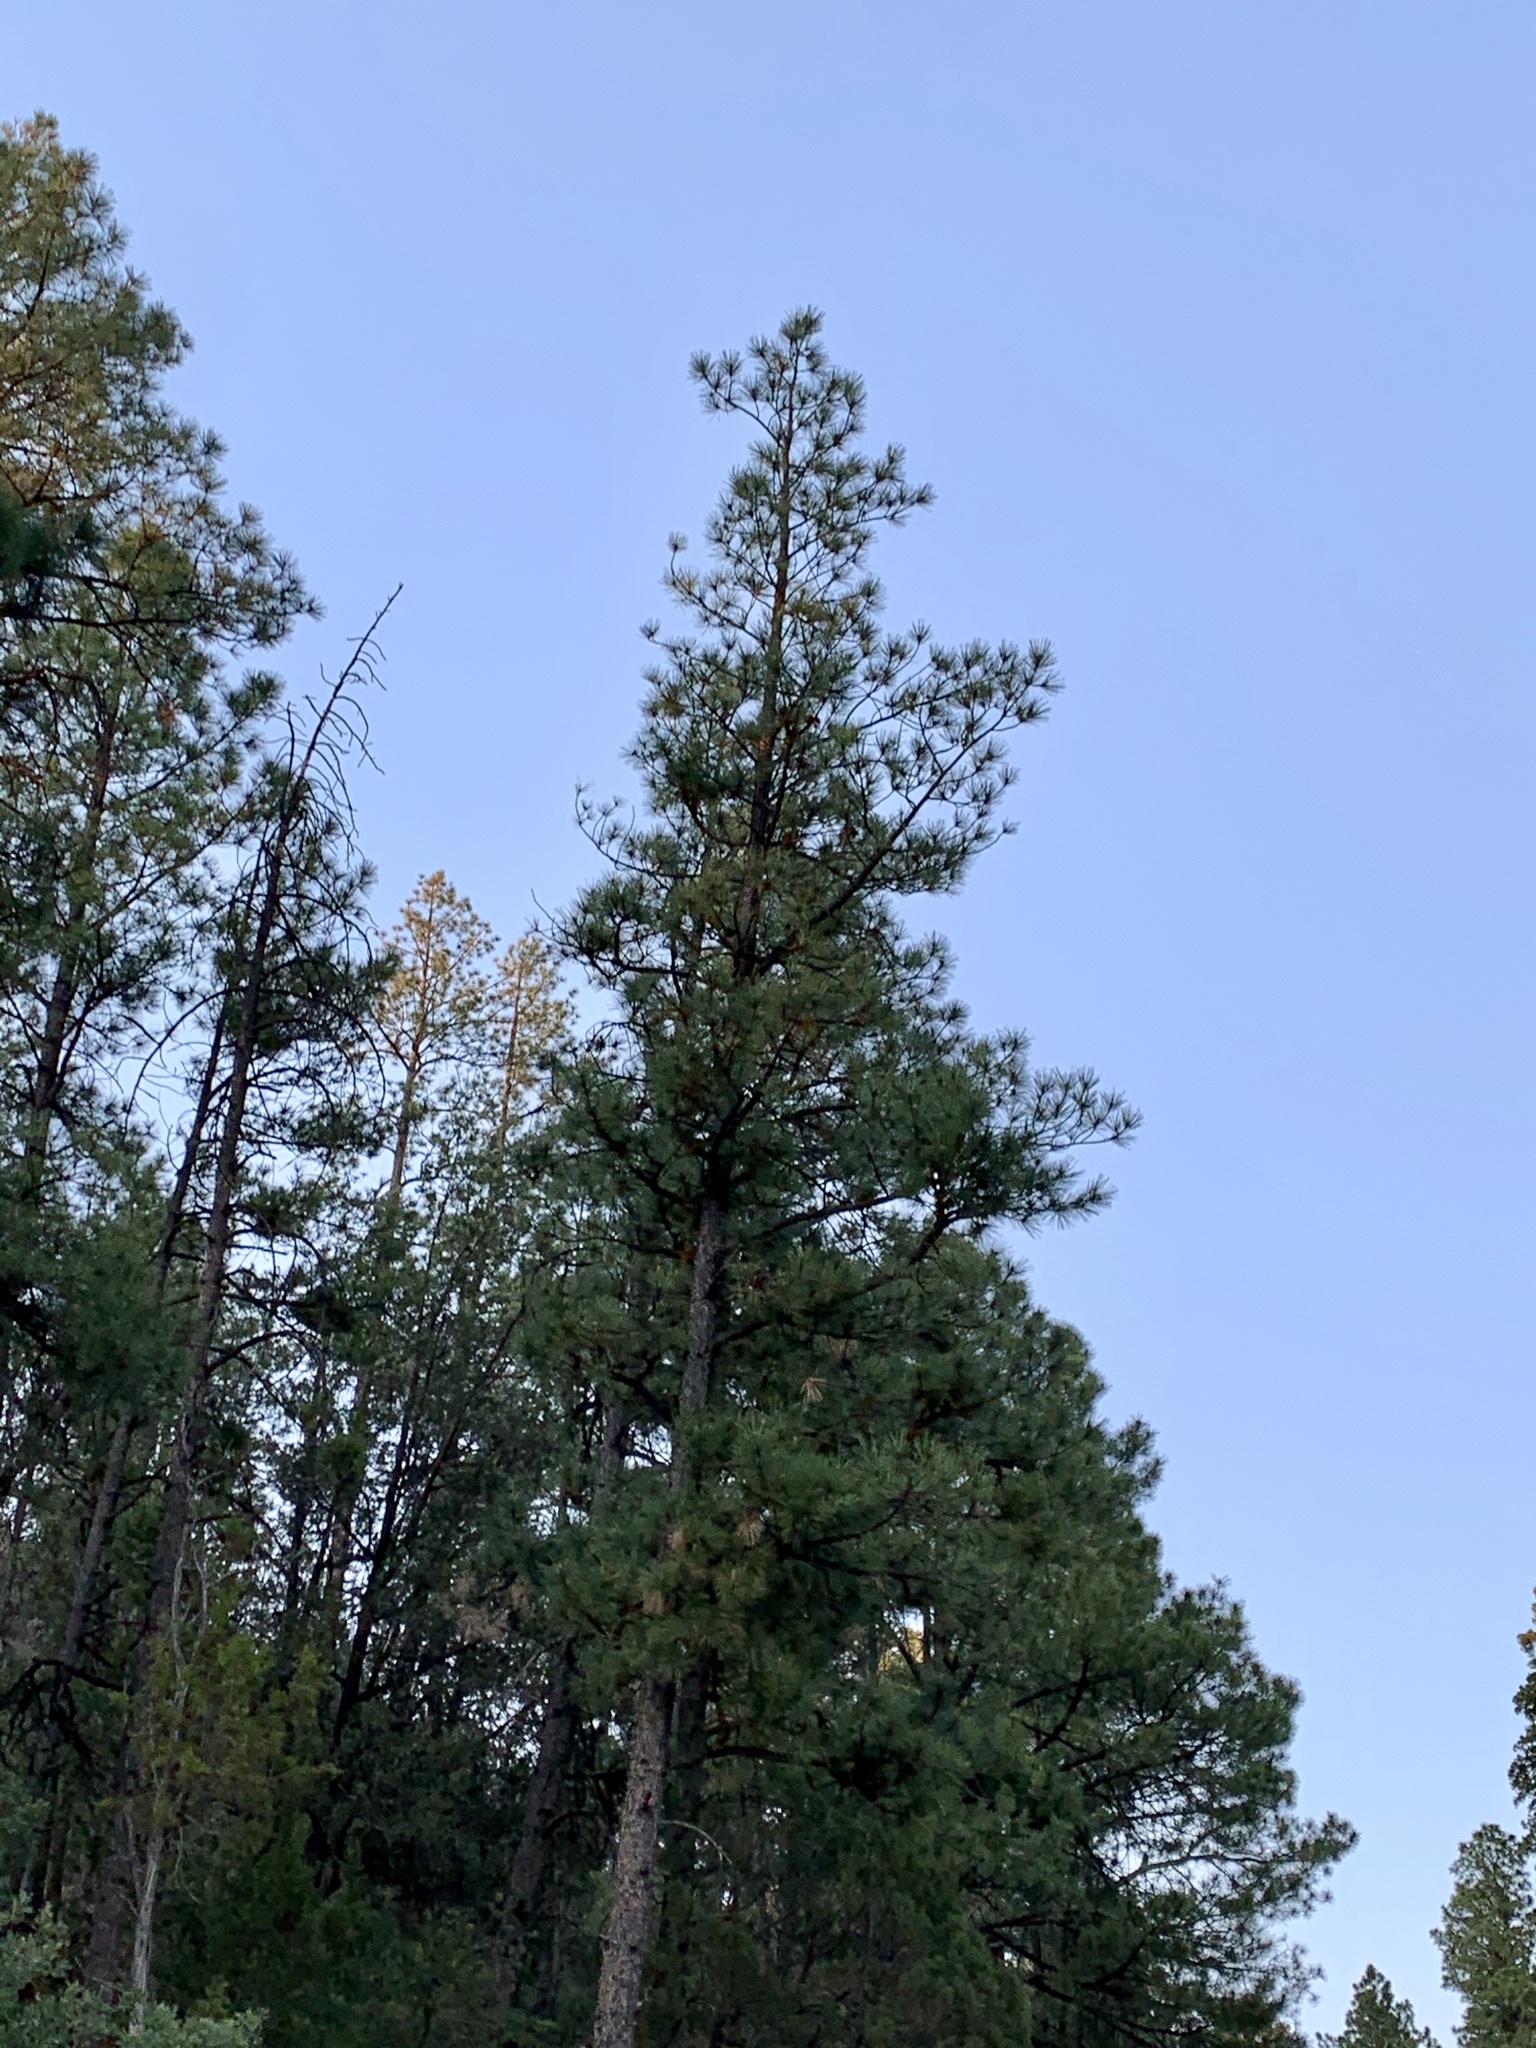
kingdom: Plantae
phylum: Tracheophyta
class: Pinopsida
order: Pinales
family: Pinaceae
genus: Pinus
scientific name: Pinus ponderosa
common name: Western yellow-pine
